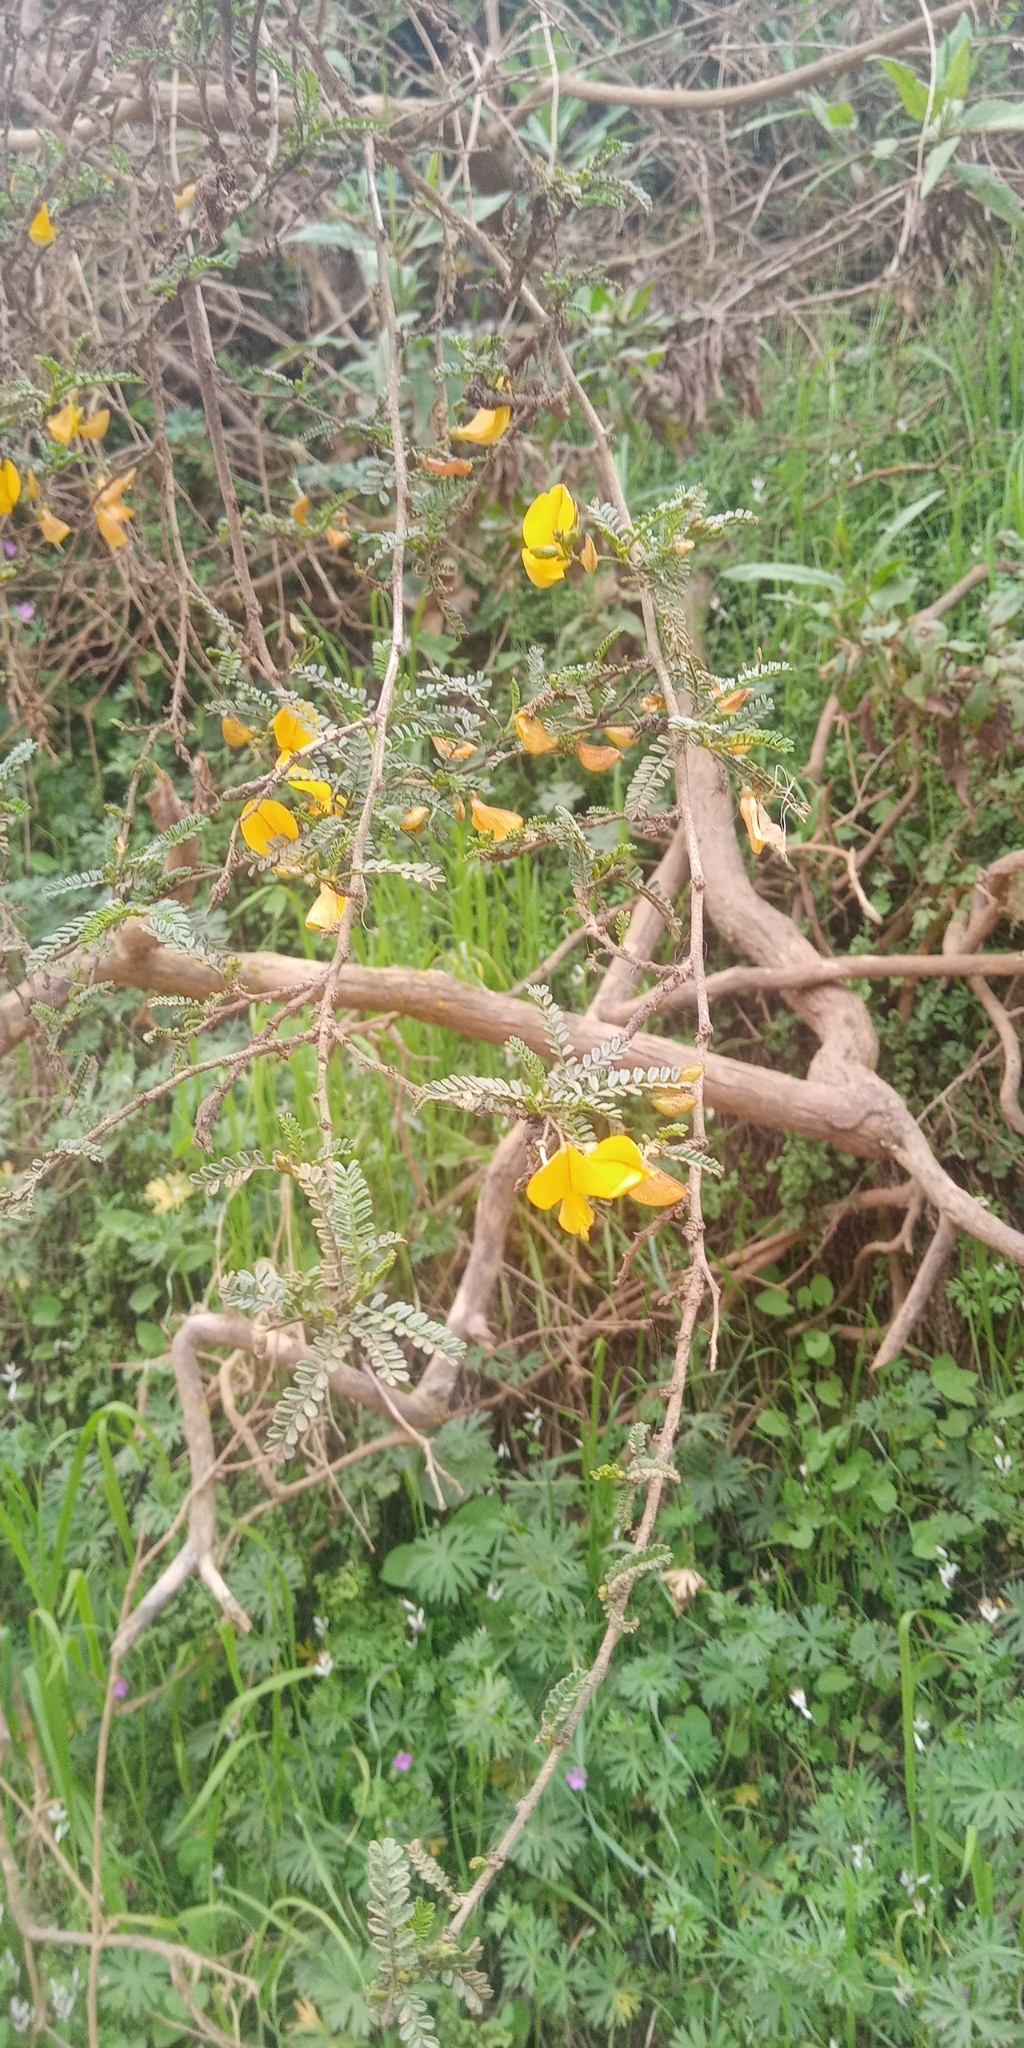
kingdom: Plantae
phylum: Tracheophyta
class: Magnoliopsida
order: Fabales
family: Fabaceae
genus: Adesmia
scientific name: Adesmia balsamica
